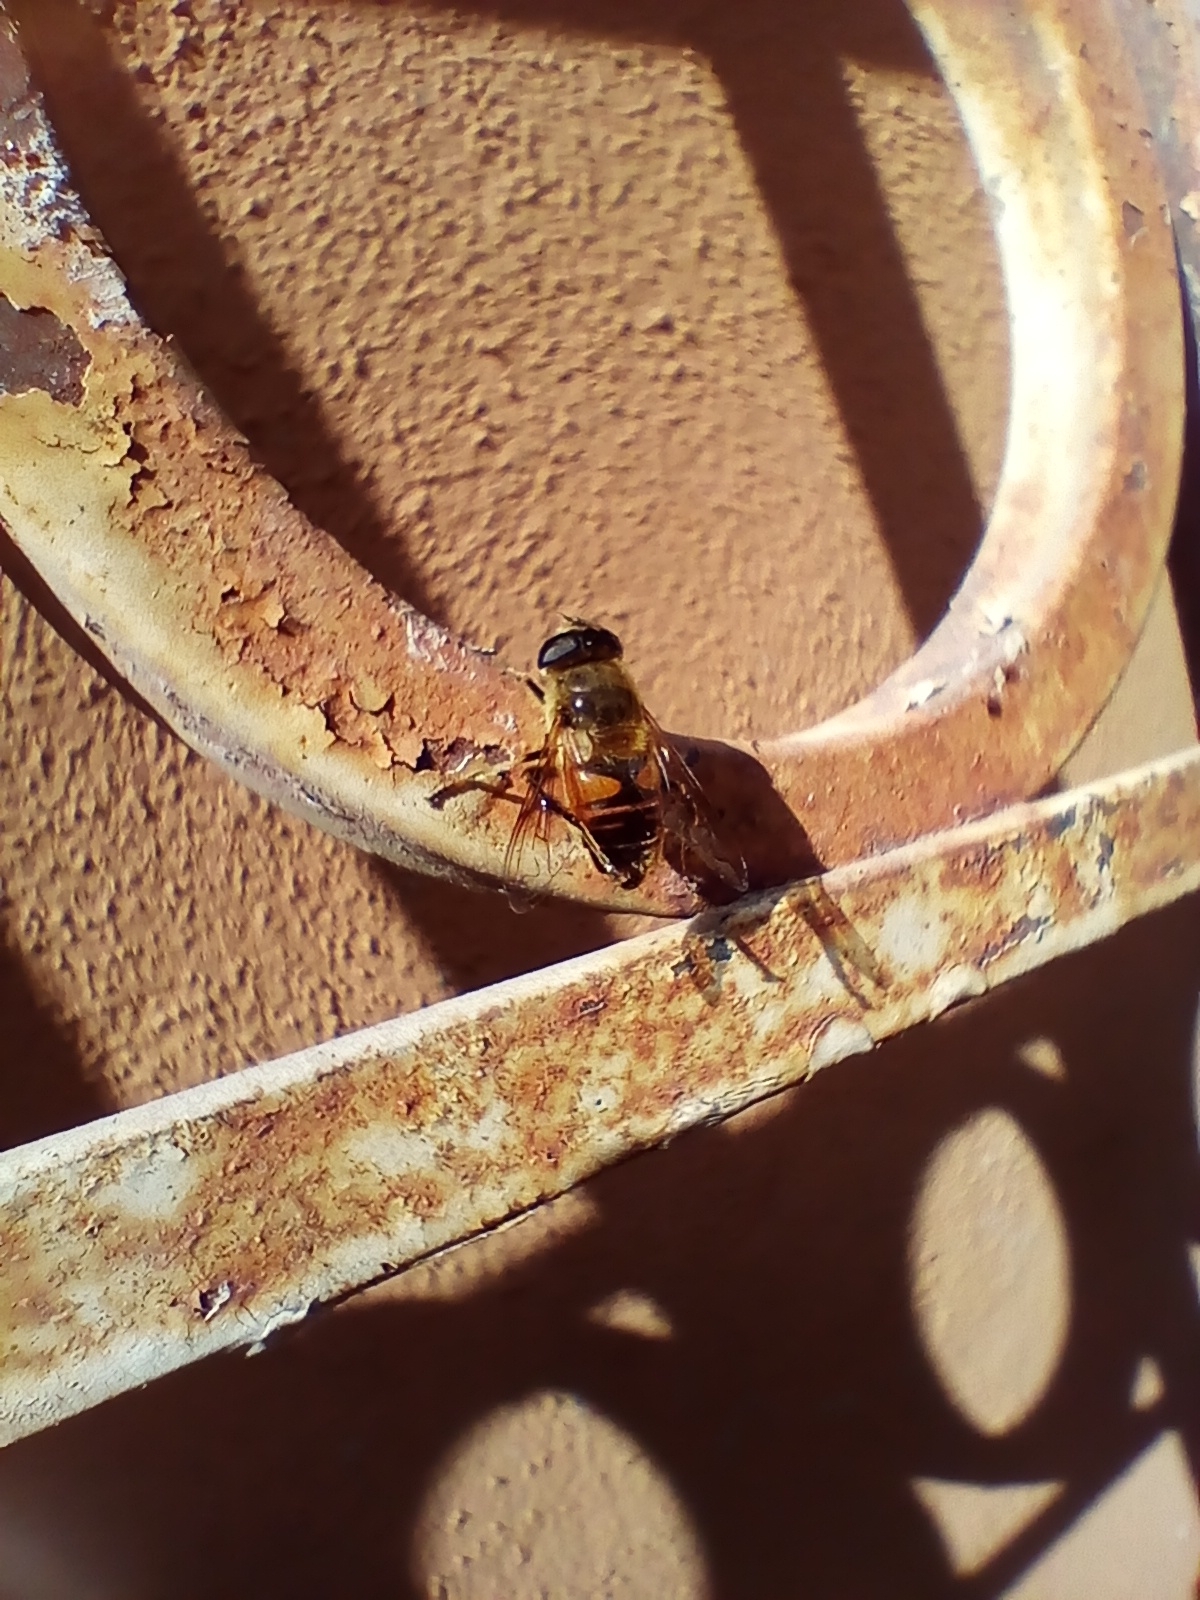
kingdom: Animalia
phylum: Arthropoda
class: Insecta
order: Diptera
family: Syrphidae
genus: Eristalis
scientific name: Eristalis tenax
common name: Drone fly
